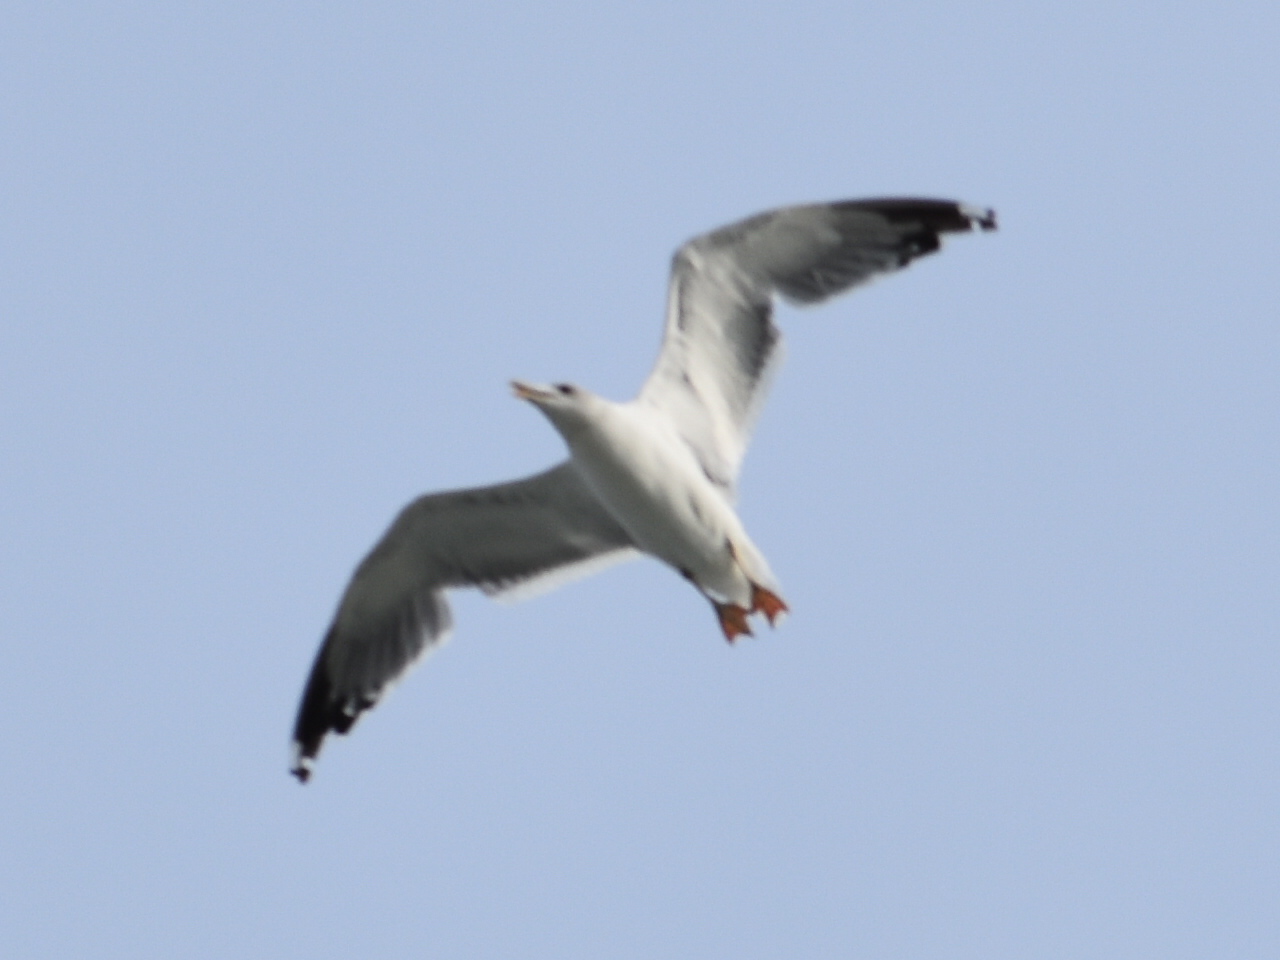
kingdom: Animalia
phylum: Chordata
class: Aves
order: Charadriiformes
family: Laridae
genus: Larus
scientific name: Larus cachinnans
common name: Caspian gull
